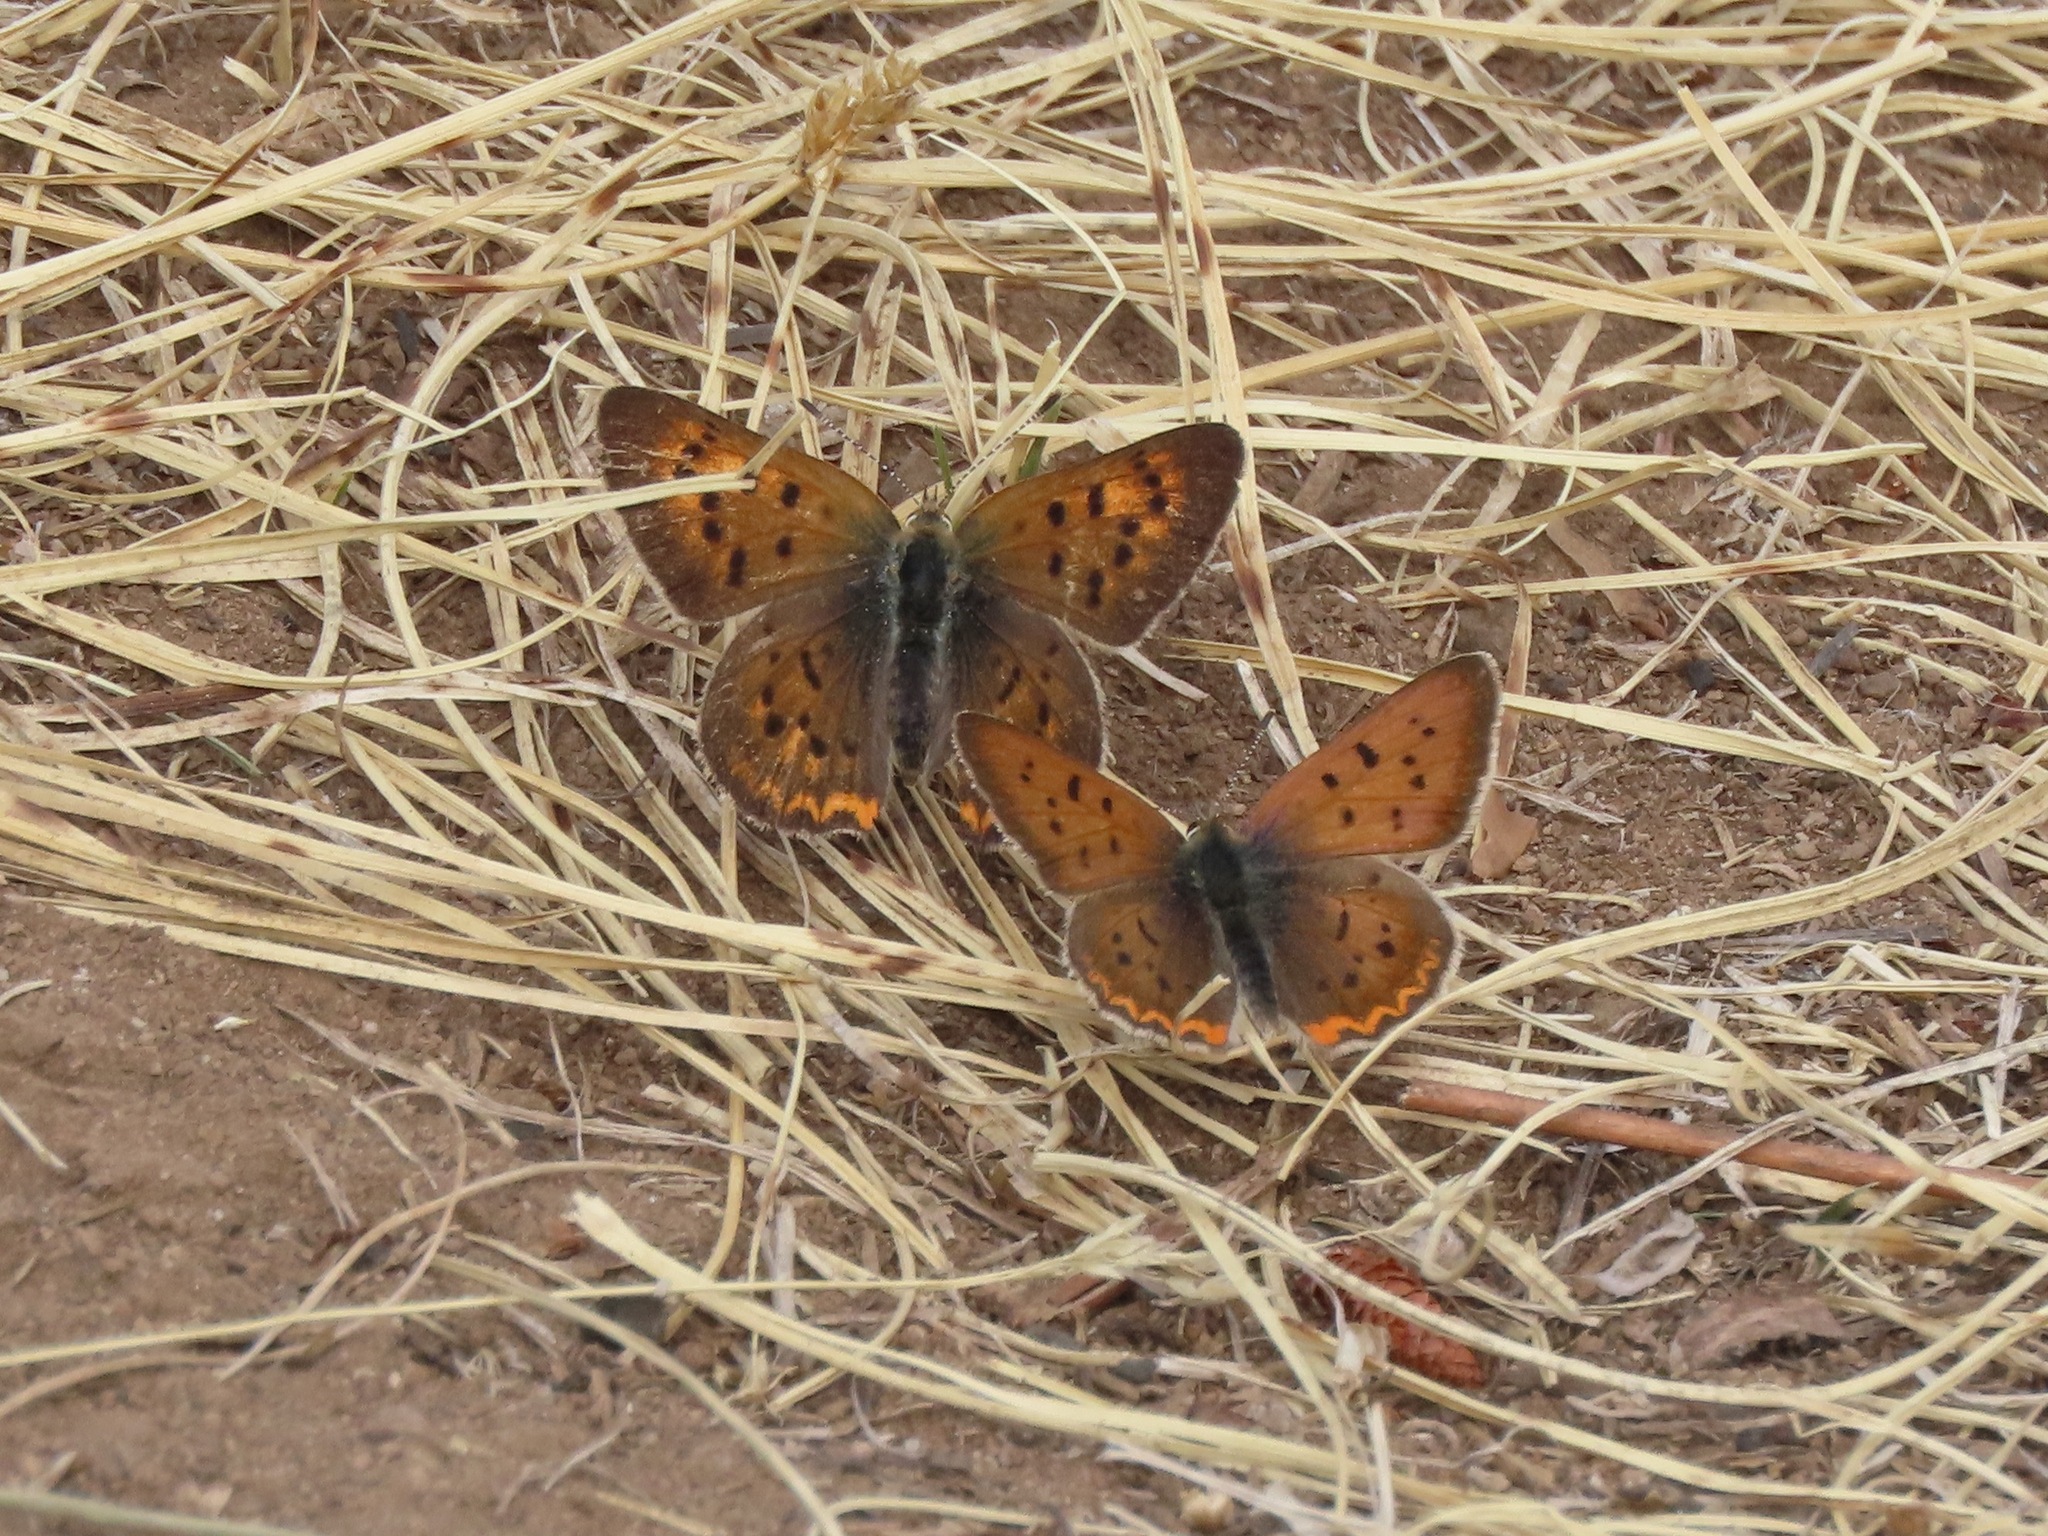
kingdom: Animalia
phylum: Arthropoda
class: Insecta
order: Lepidoptera
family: Lycaenidae
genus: Tharsalea
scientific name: Tharsalea helloides
